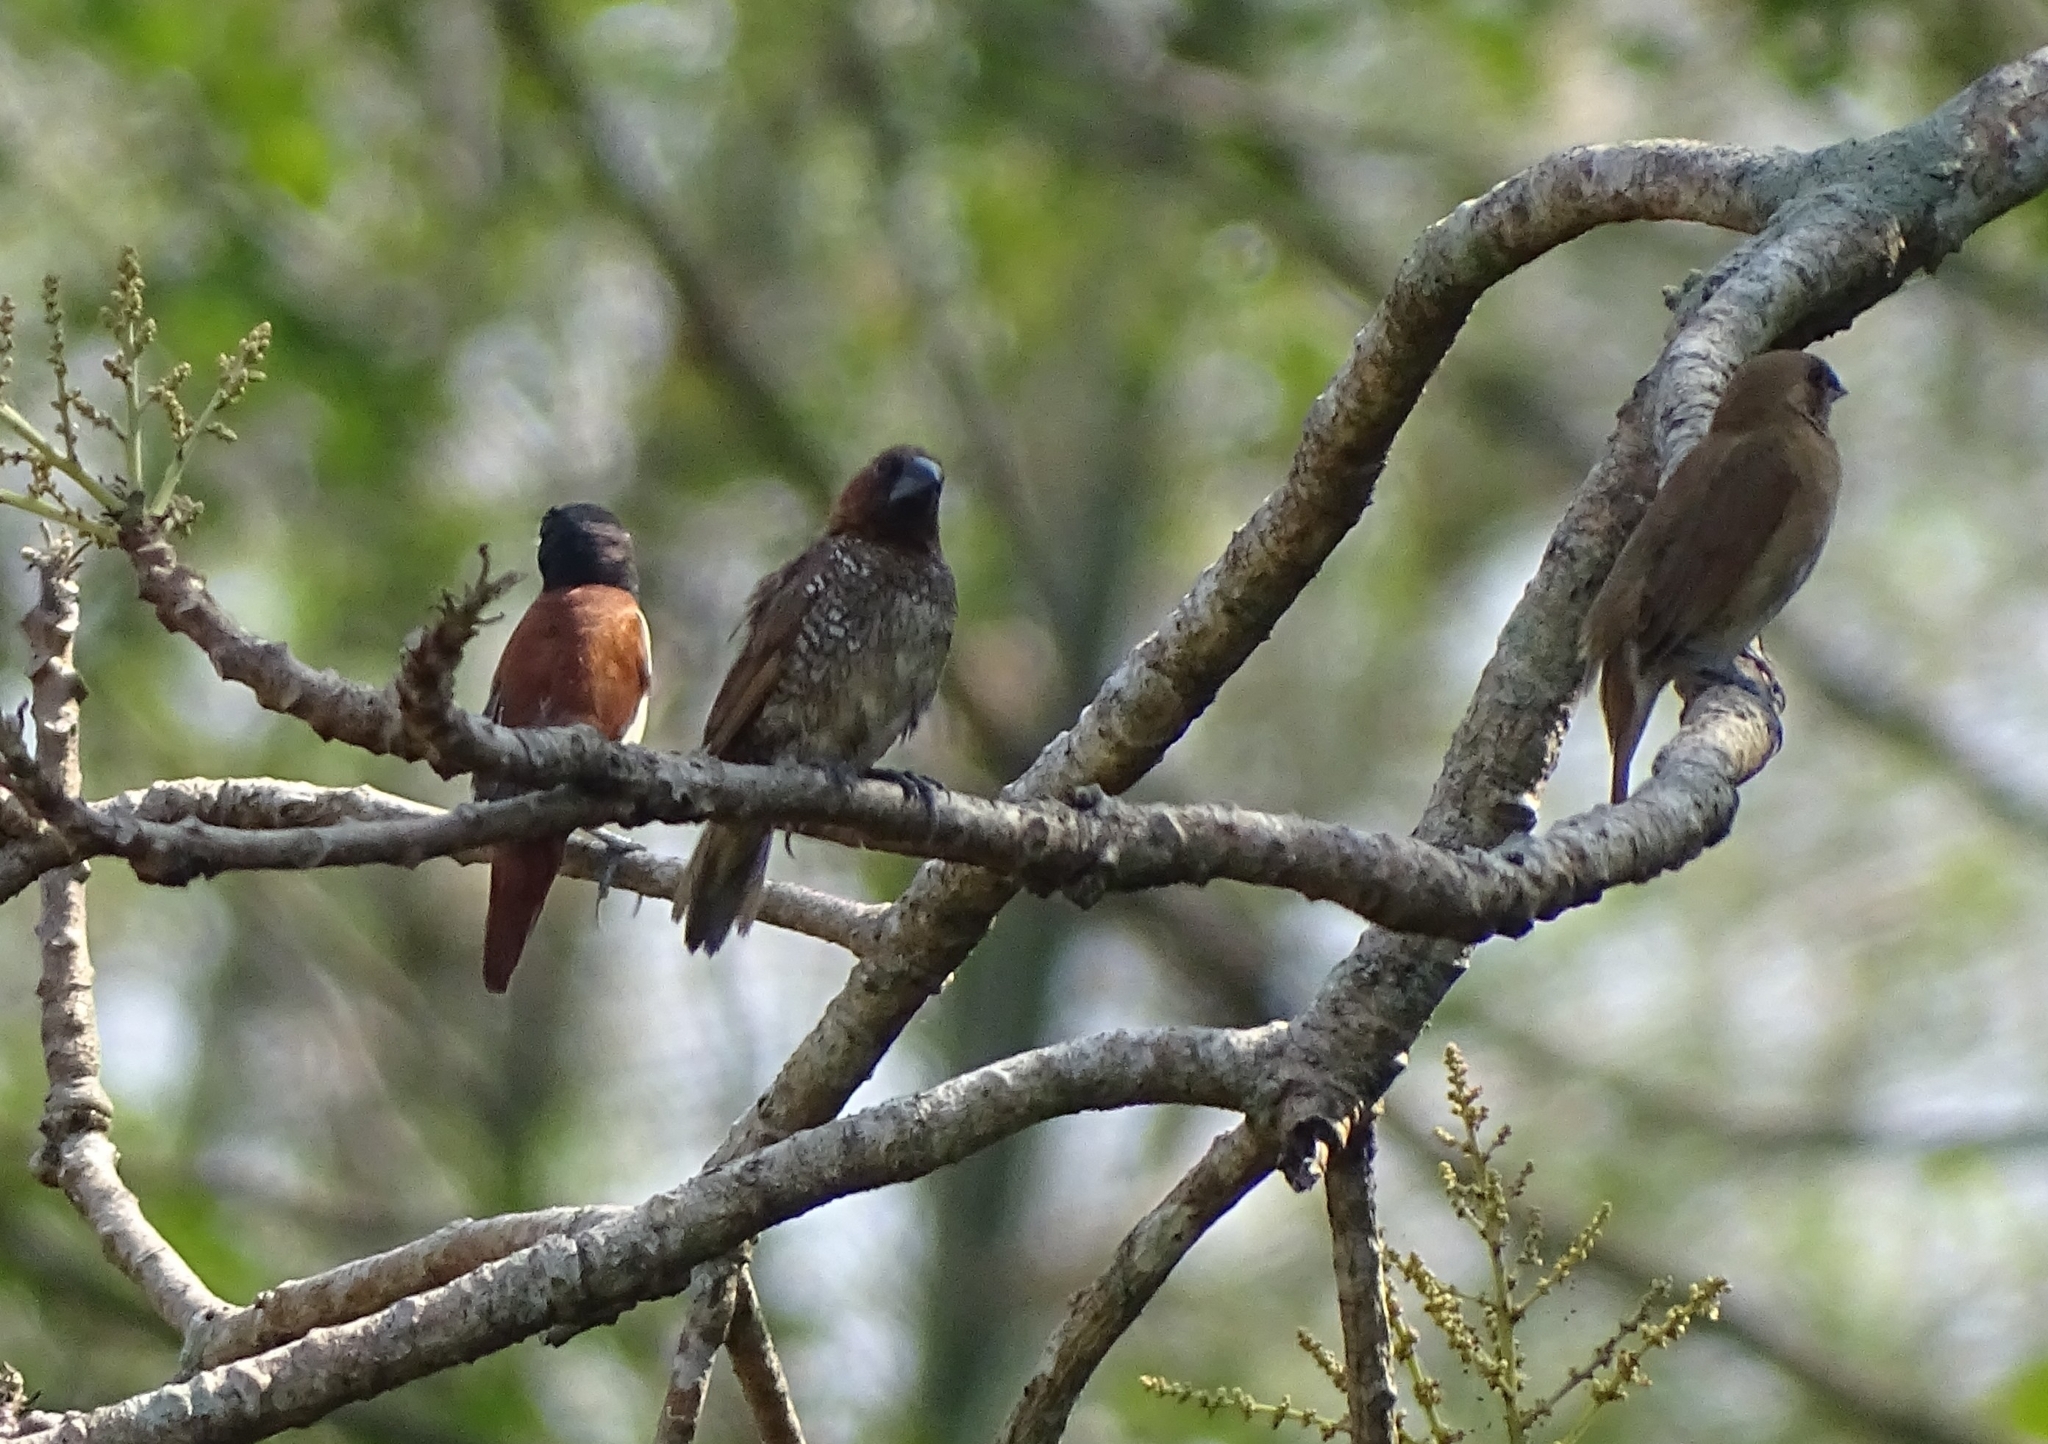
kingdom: Animalia
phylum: Chordata
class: Aves
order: Passeriformes
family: Estrildidae
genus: Lonchura
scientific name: Lonchura malacca
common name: Tricolored munia
